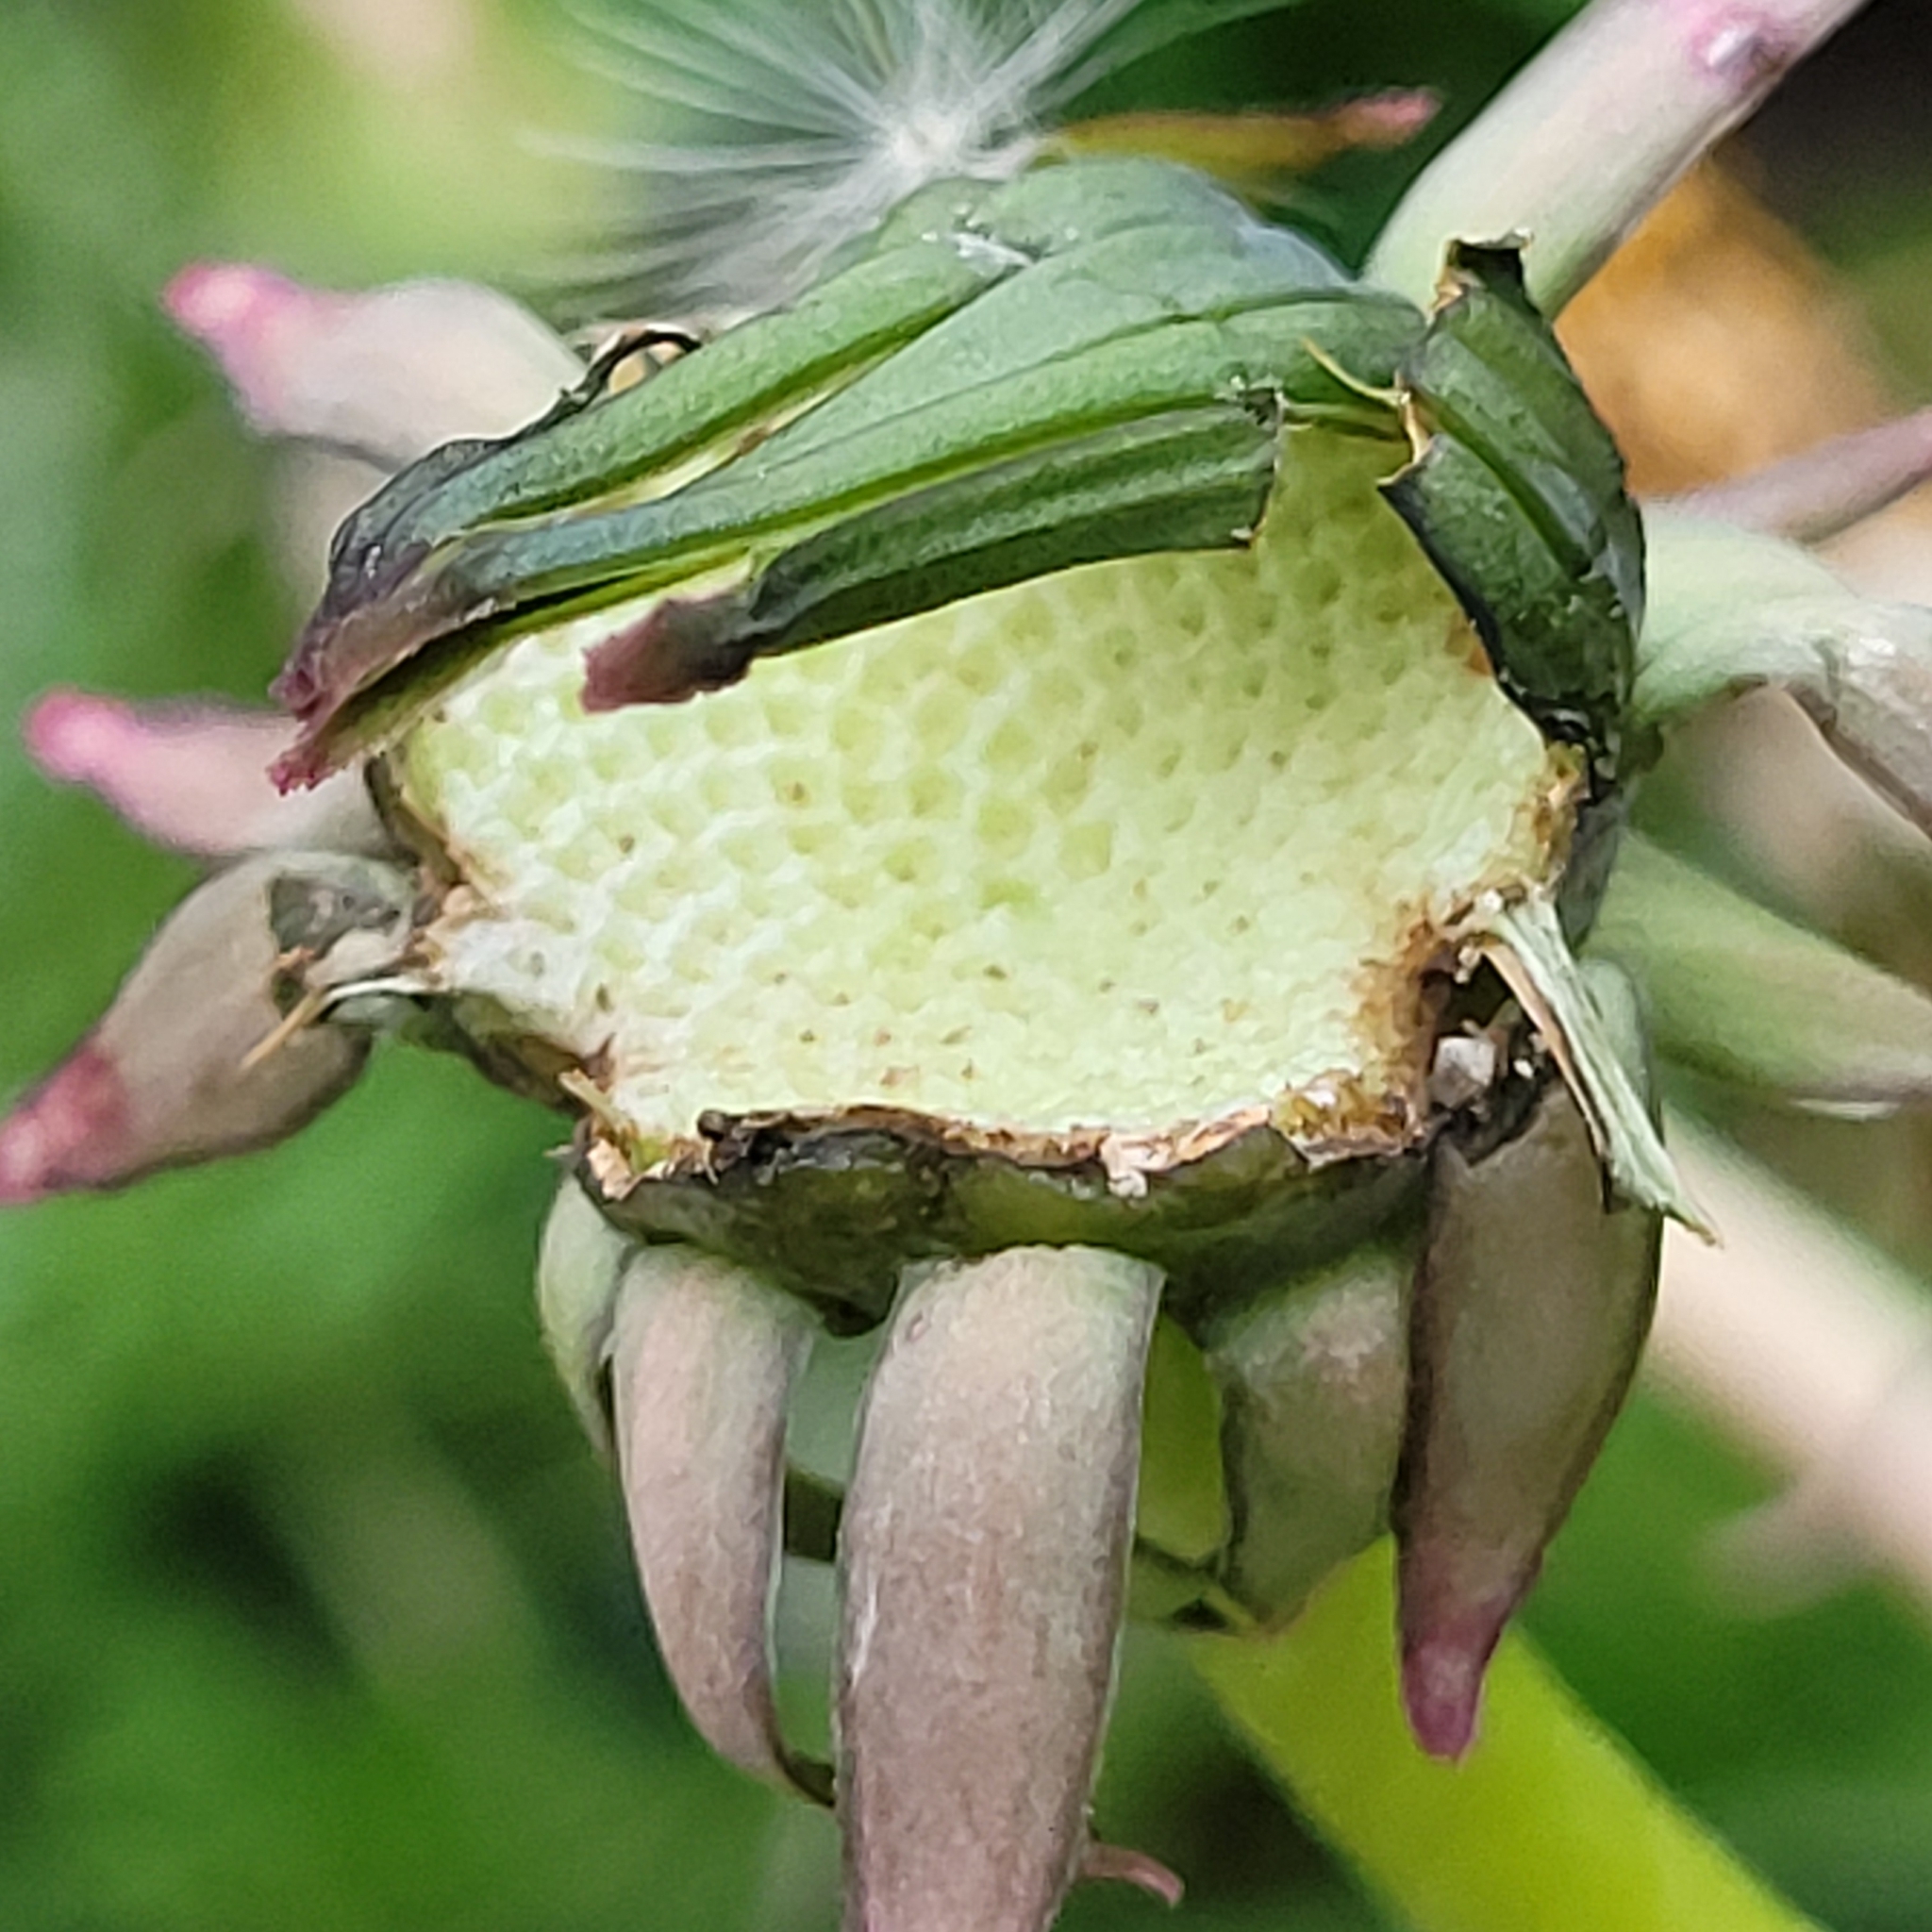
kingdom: Plantae
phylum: Tracheophyta
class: Magnoliopsida
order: Asterales
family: Asteraceae
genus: Taraxacum
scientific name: Taraxacum officinale
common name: Common dandelion
